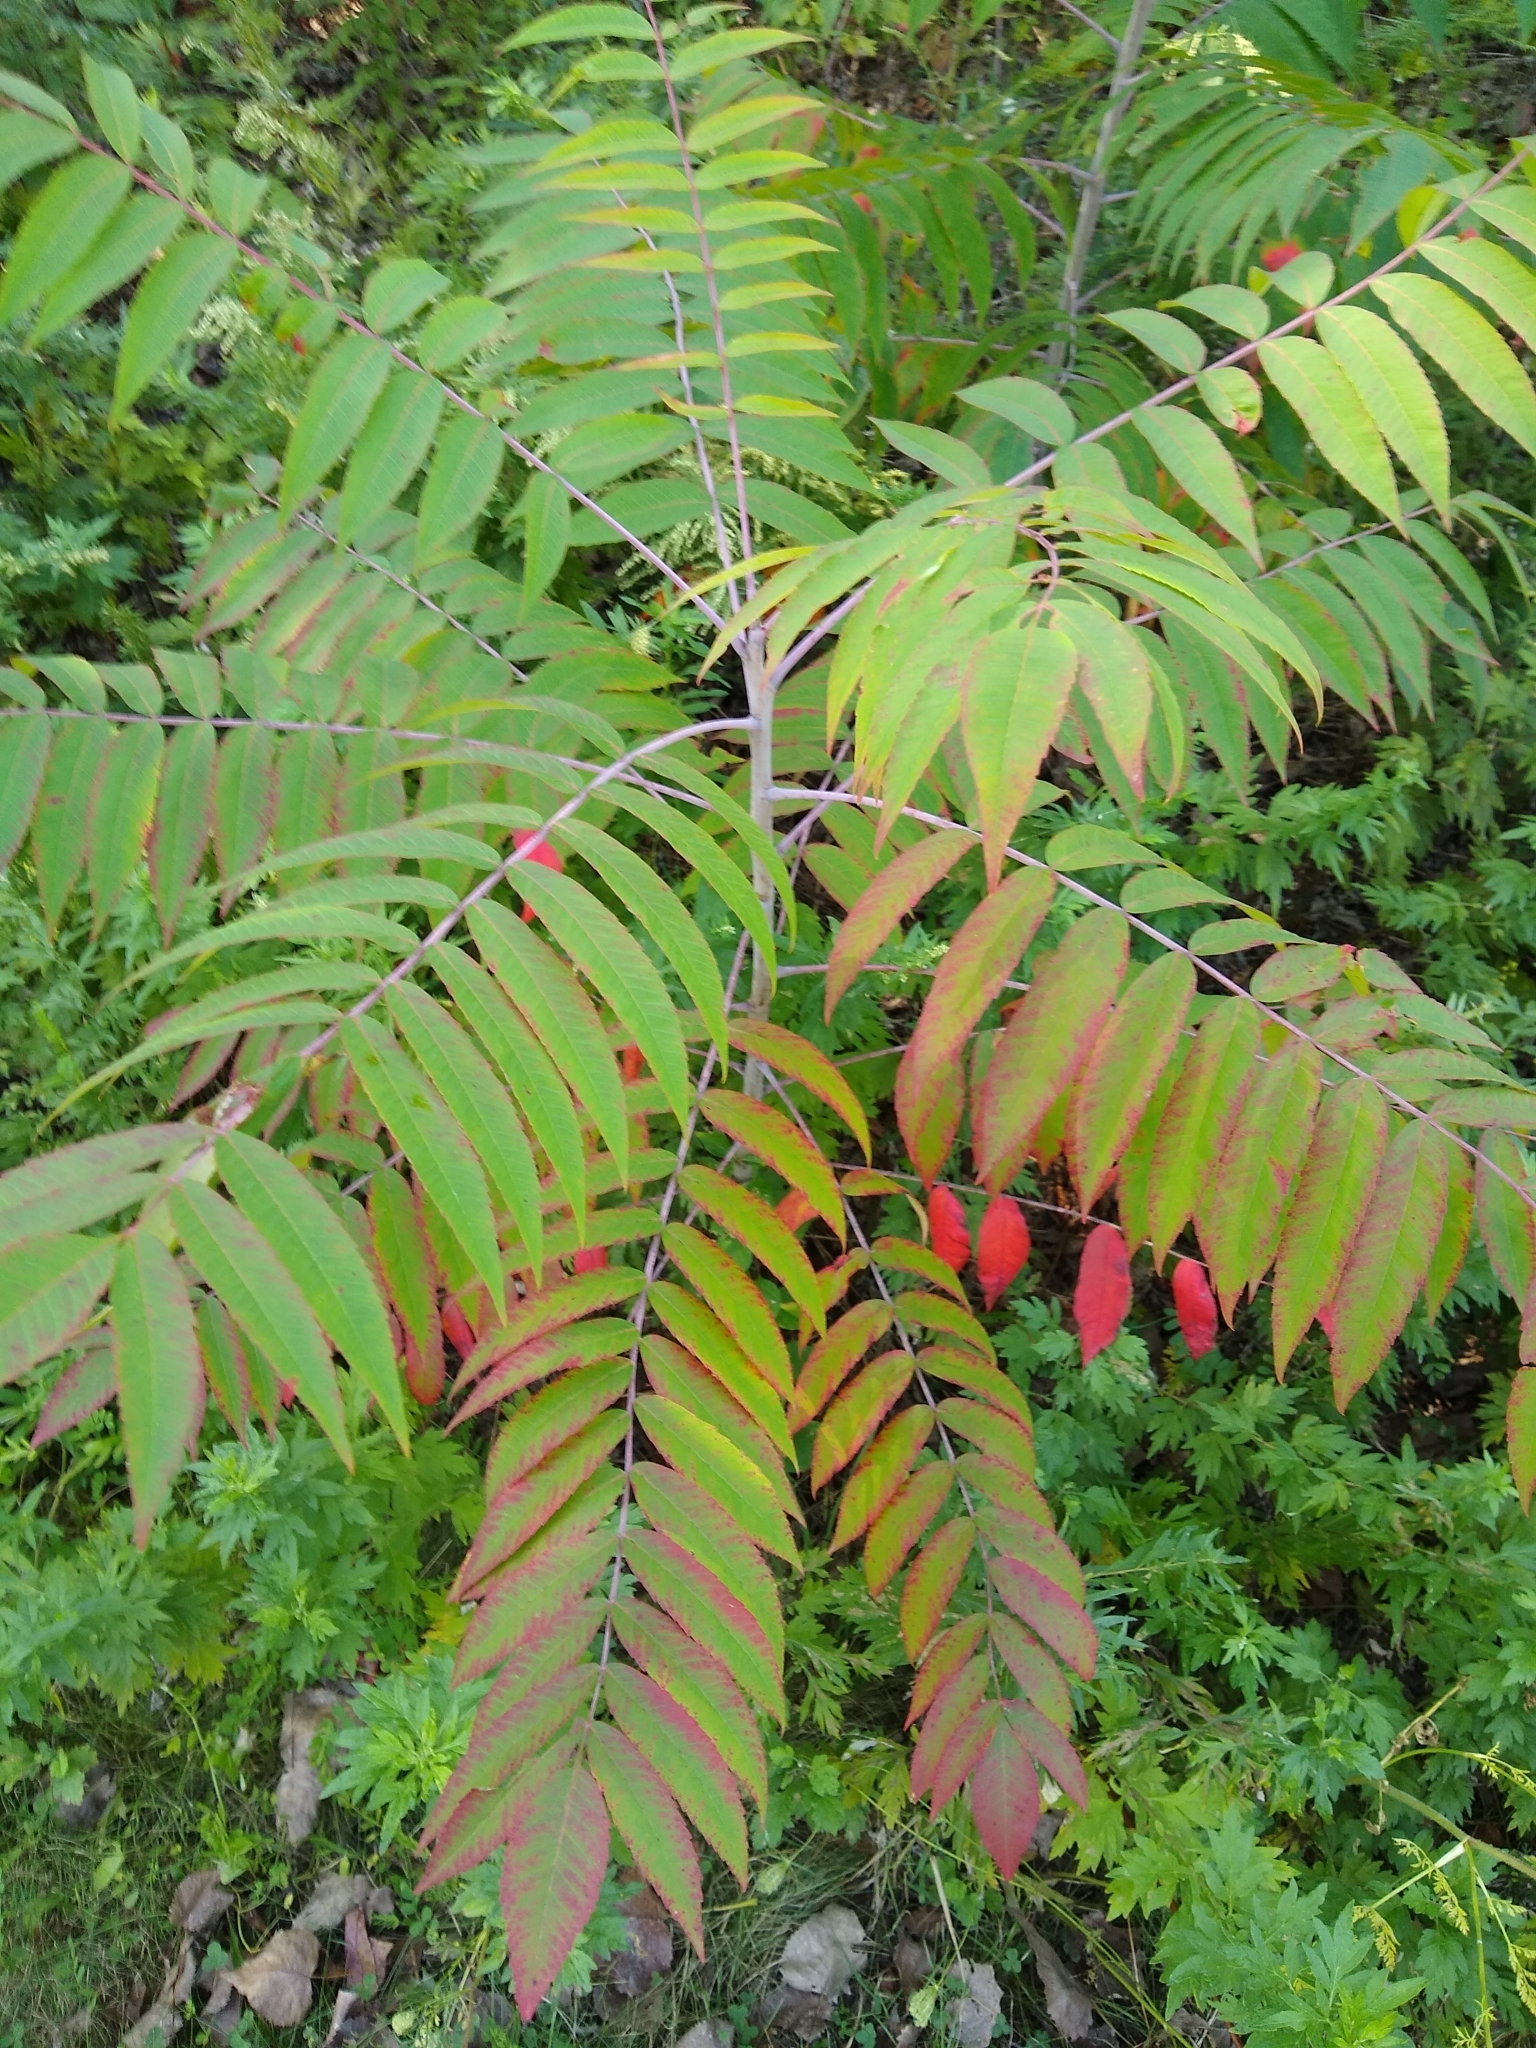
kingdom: Plantae
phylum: Tracheophyta
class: Magnoliopsida
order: Sapindales
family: Anacardiaceae
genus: Rhus
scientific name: Rhus glabra
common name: Scarlet sumac
